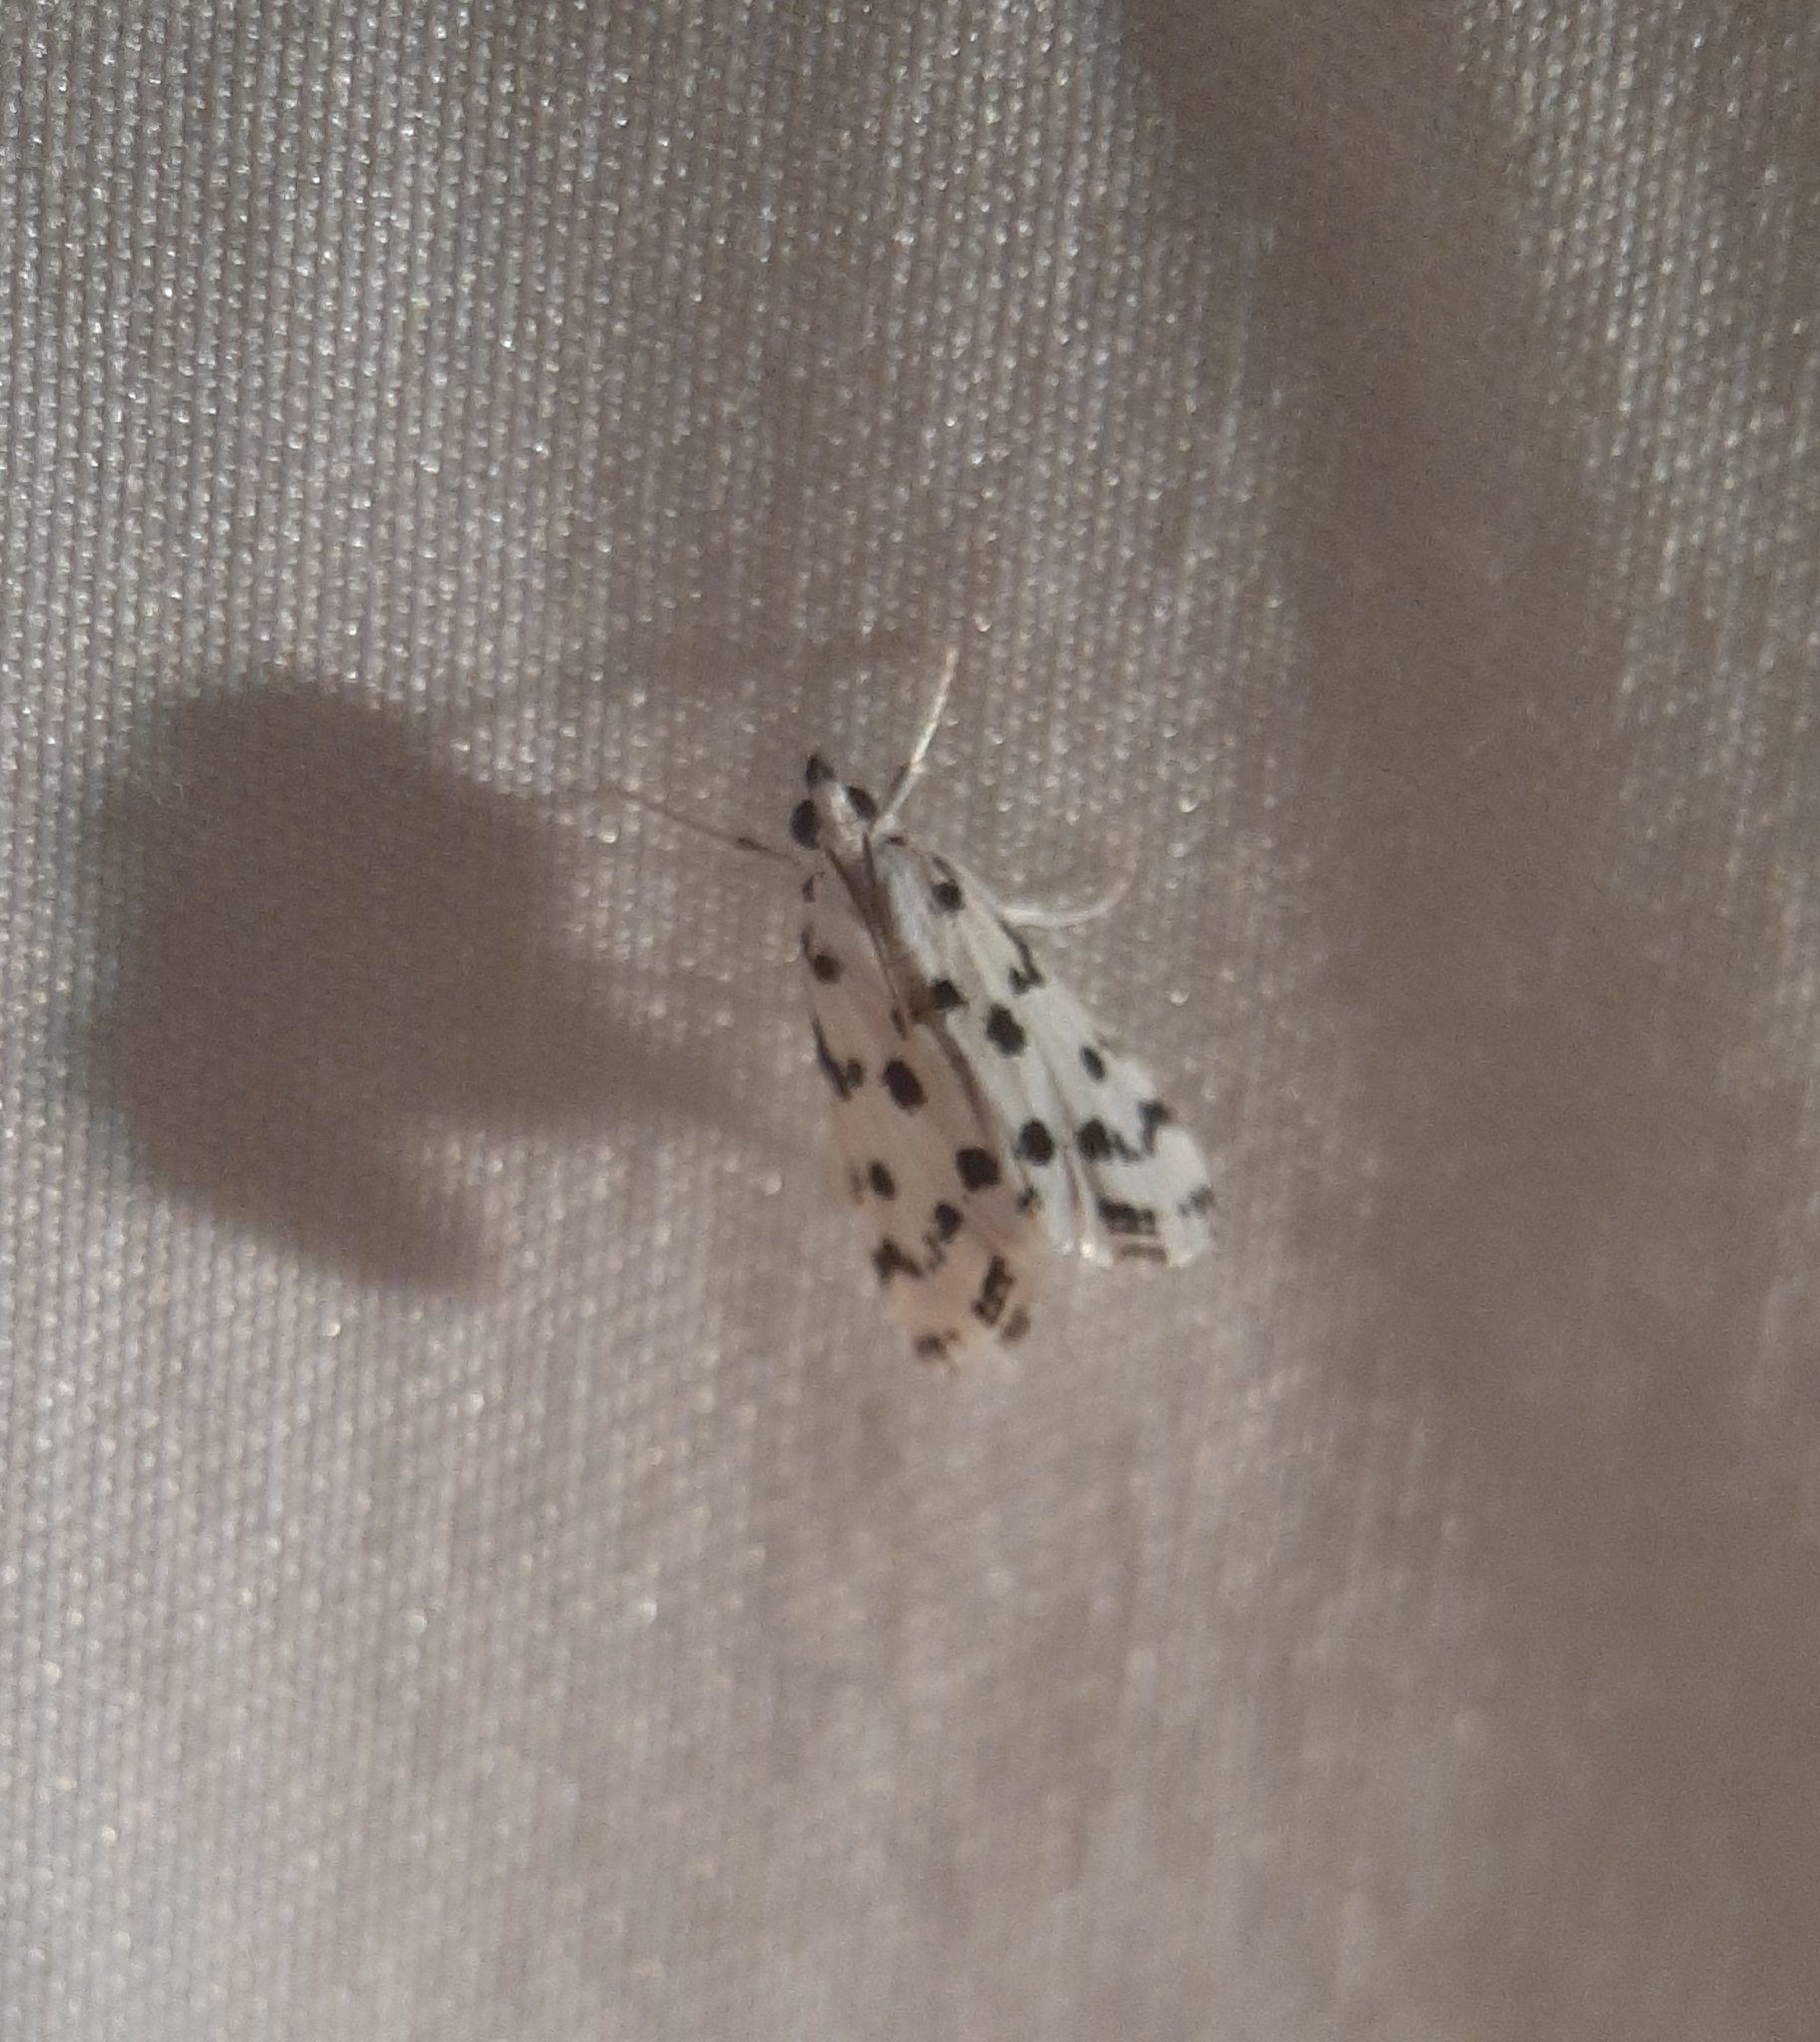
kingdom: Animalia
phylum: Arthropoda
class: Insecta
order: Lepidoptera
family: Crambidae
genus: Eustixia
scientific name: Eustixia pupula
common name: American cabbage pearl
